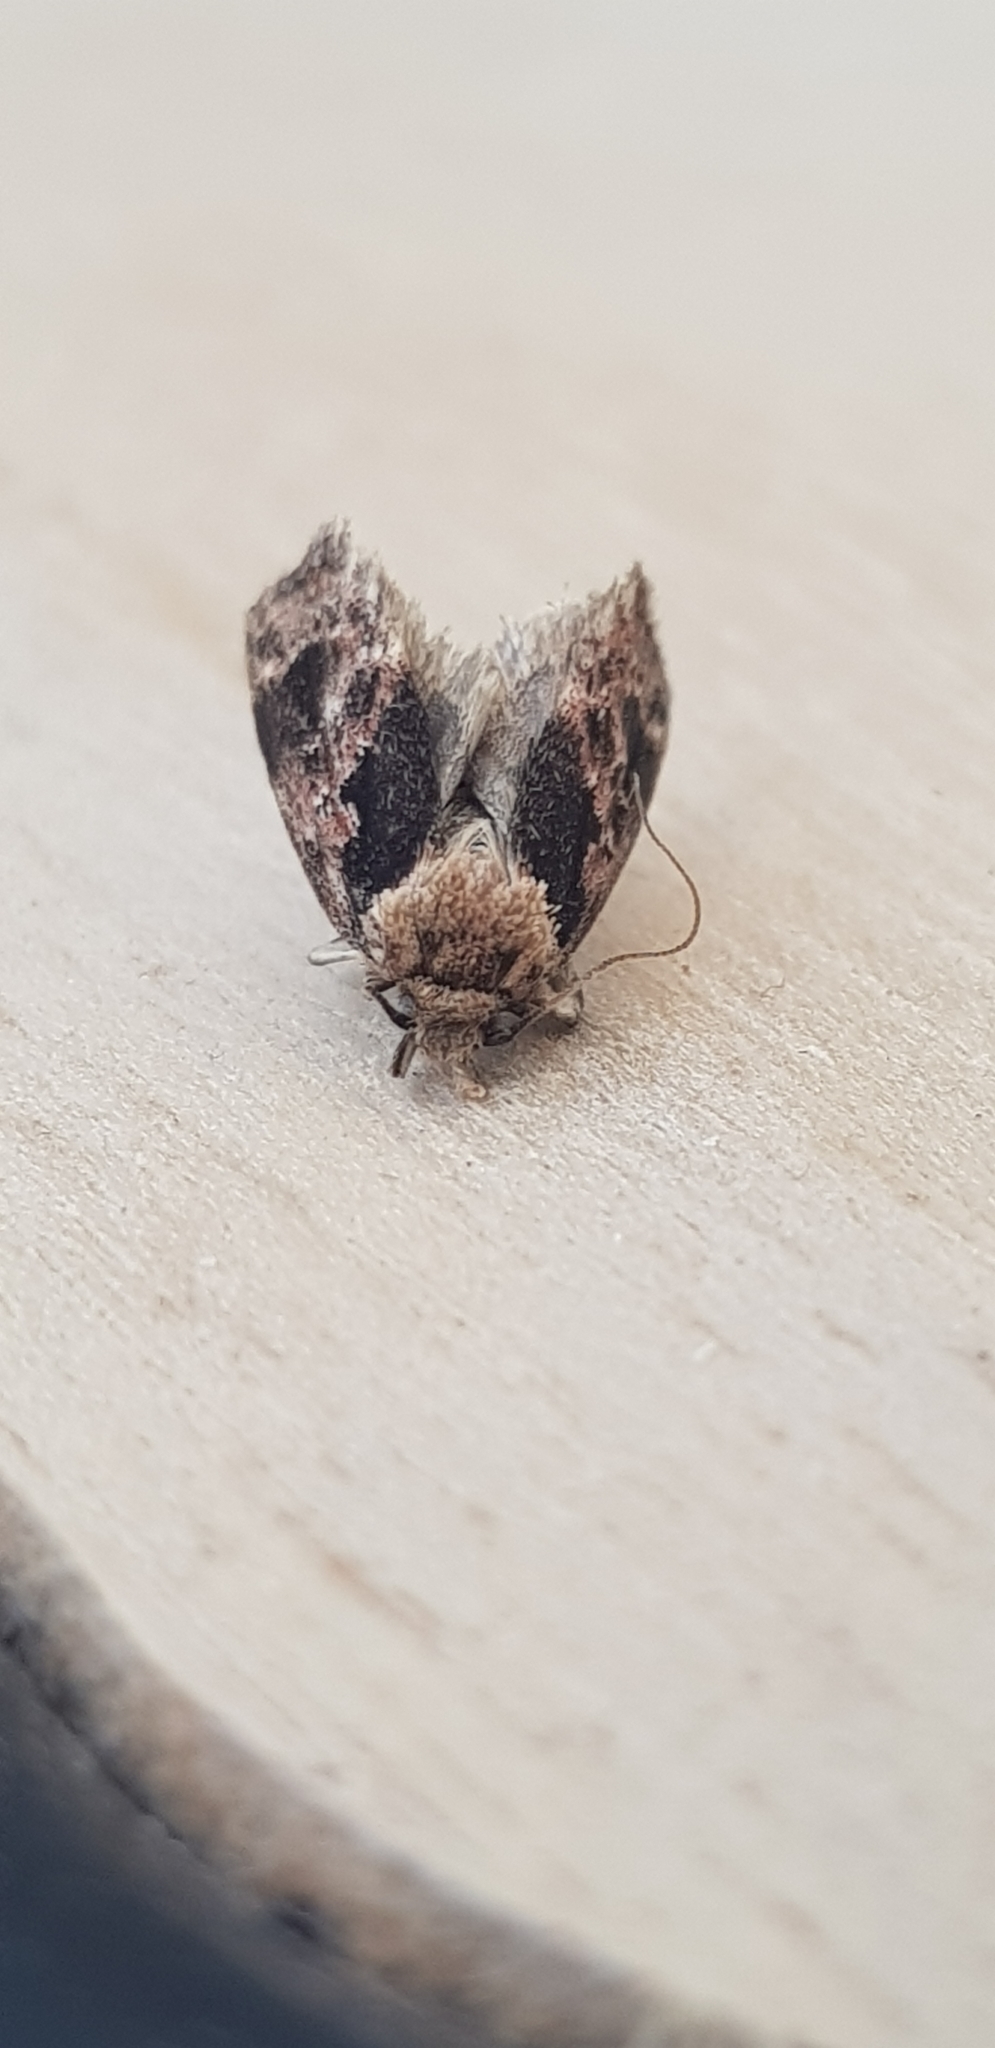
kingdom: Animalia
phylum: Arthropoda
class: Insecta
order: Lepidoptera
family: Oecophoridae
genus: Barea
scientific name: Barea consignatella
